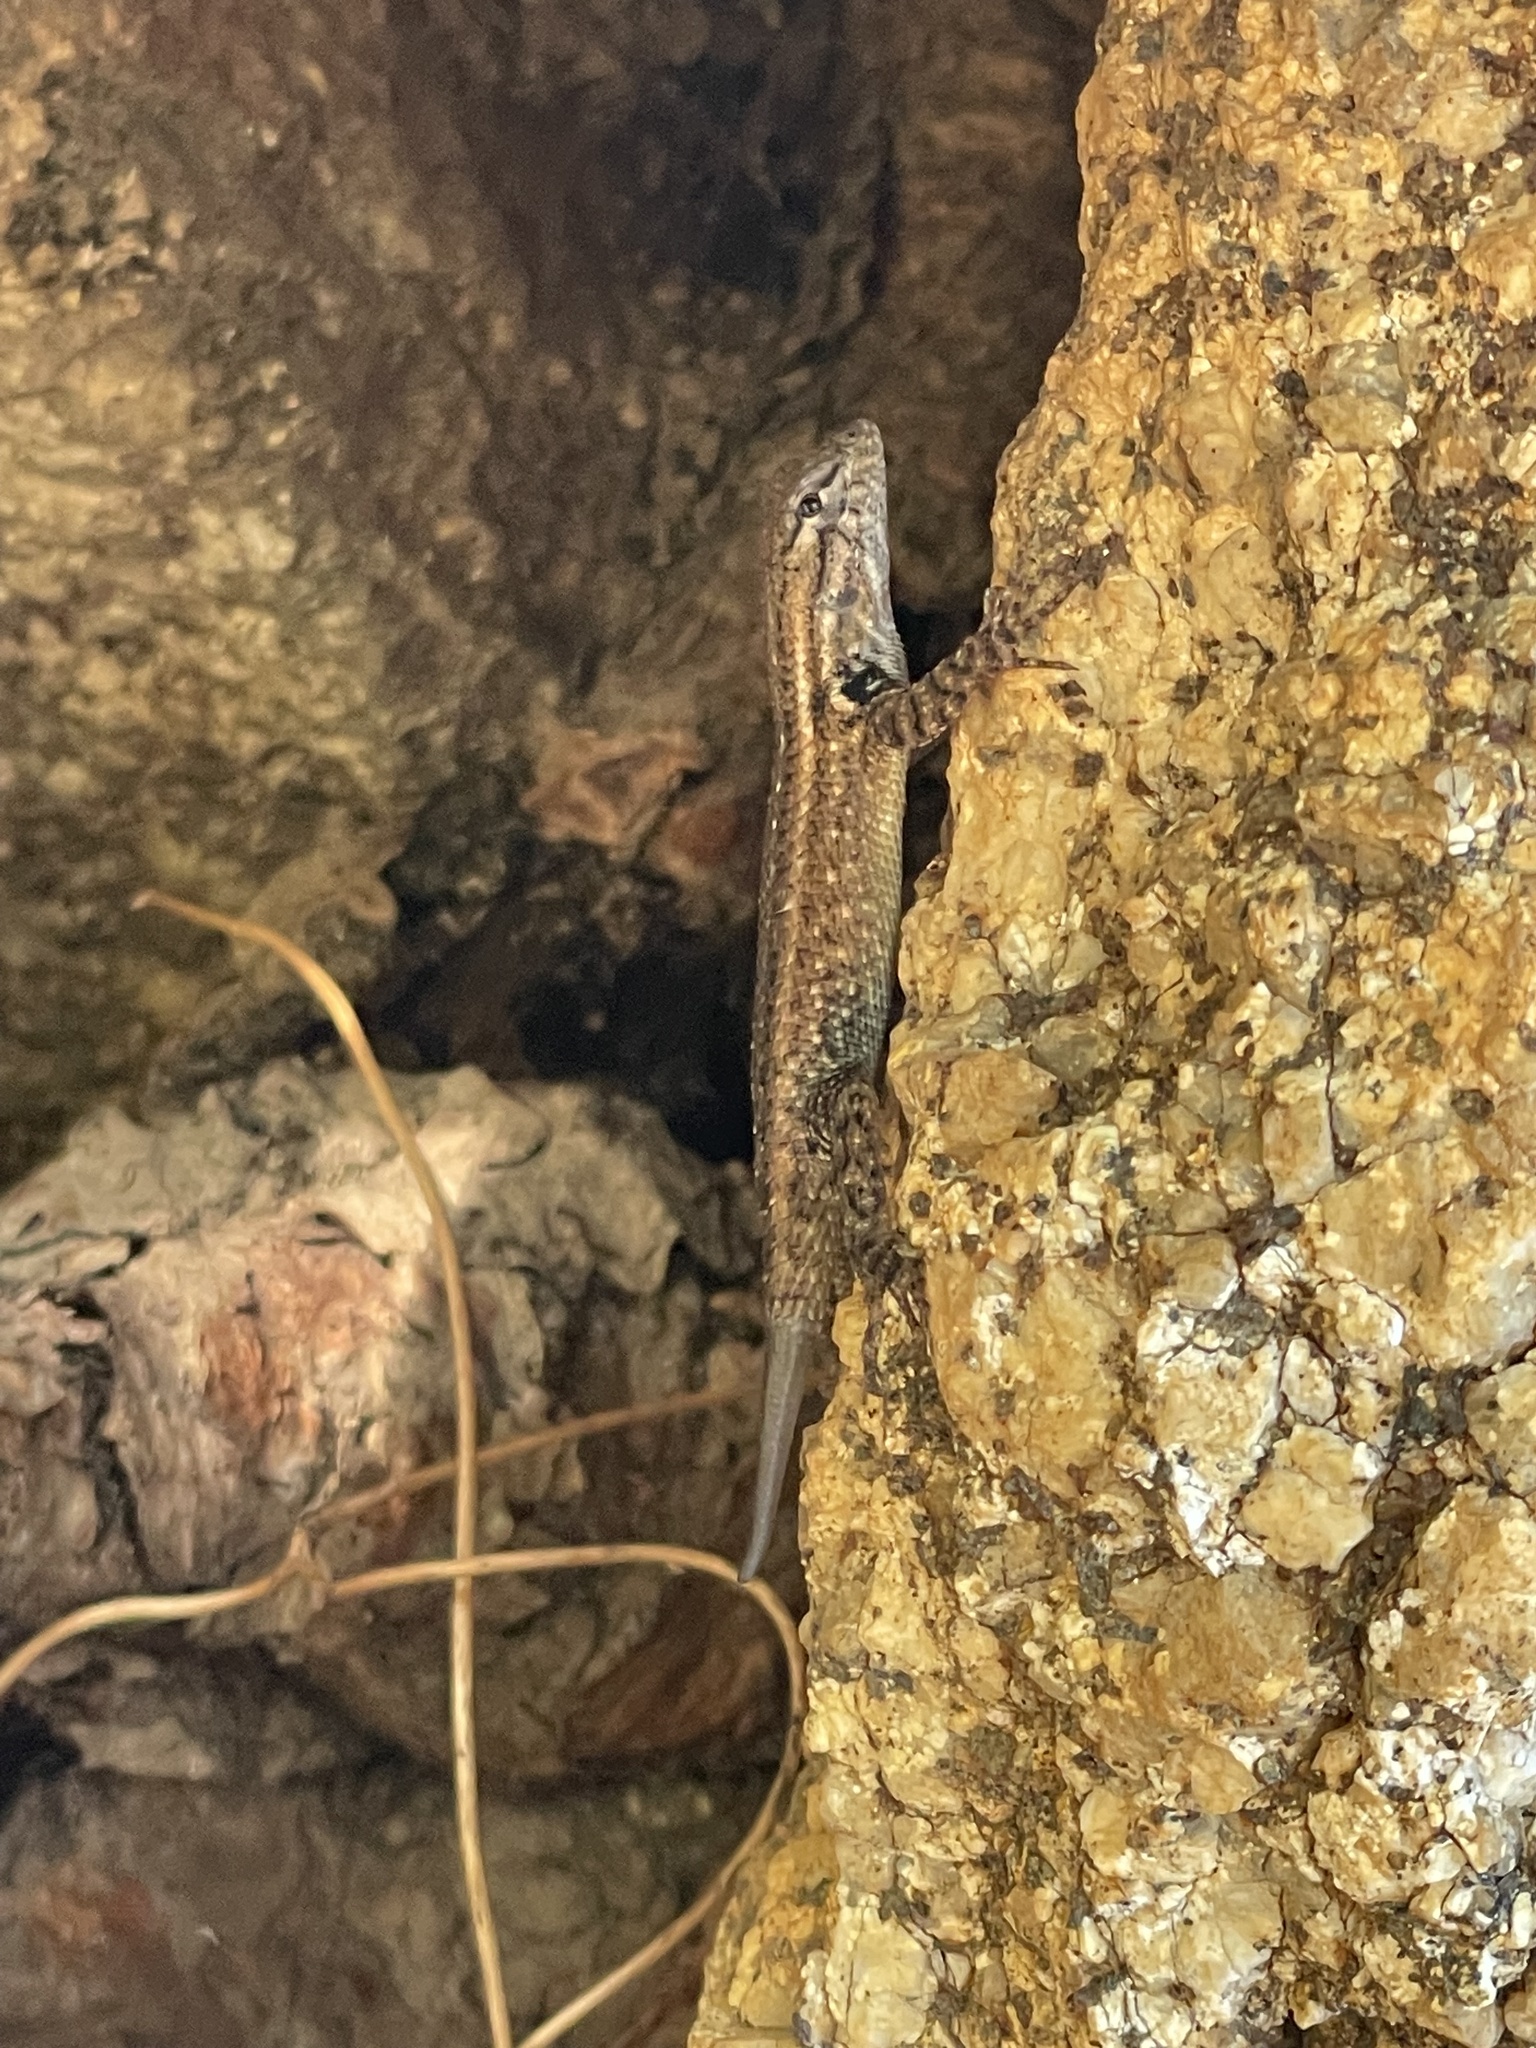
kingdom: Animalia
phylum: Chordata
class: Squamata
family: Phrynosomatidae
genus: Sceloporus
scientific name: Sceloporus licki
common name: Cape arboreal spiny lizard
